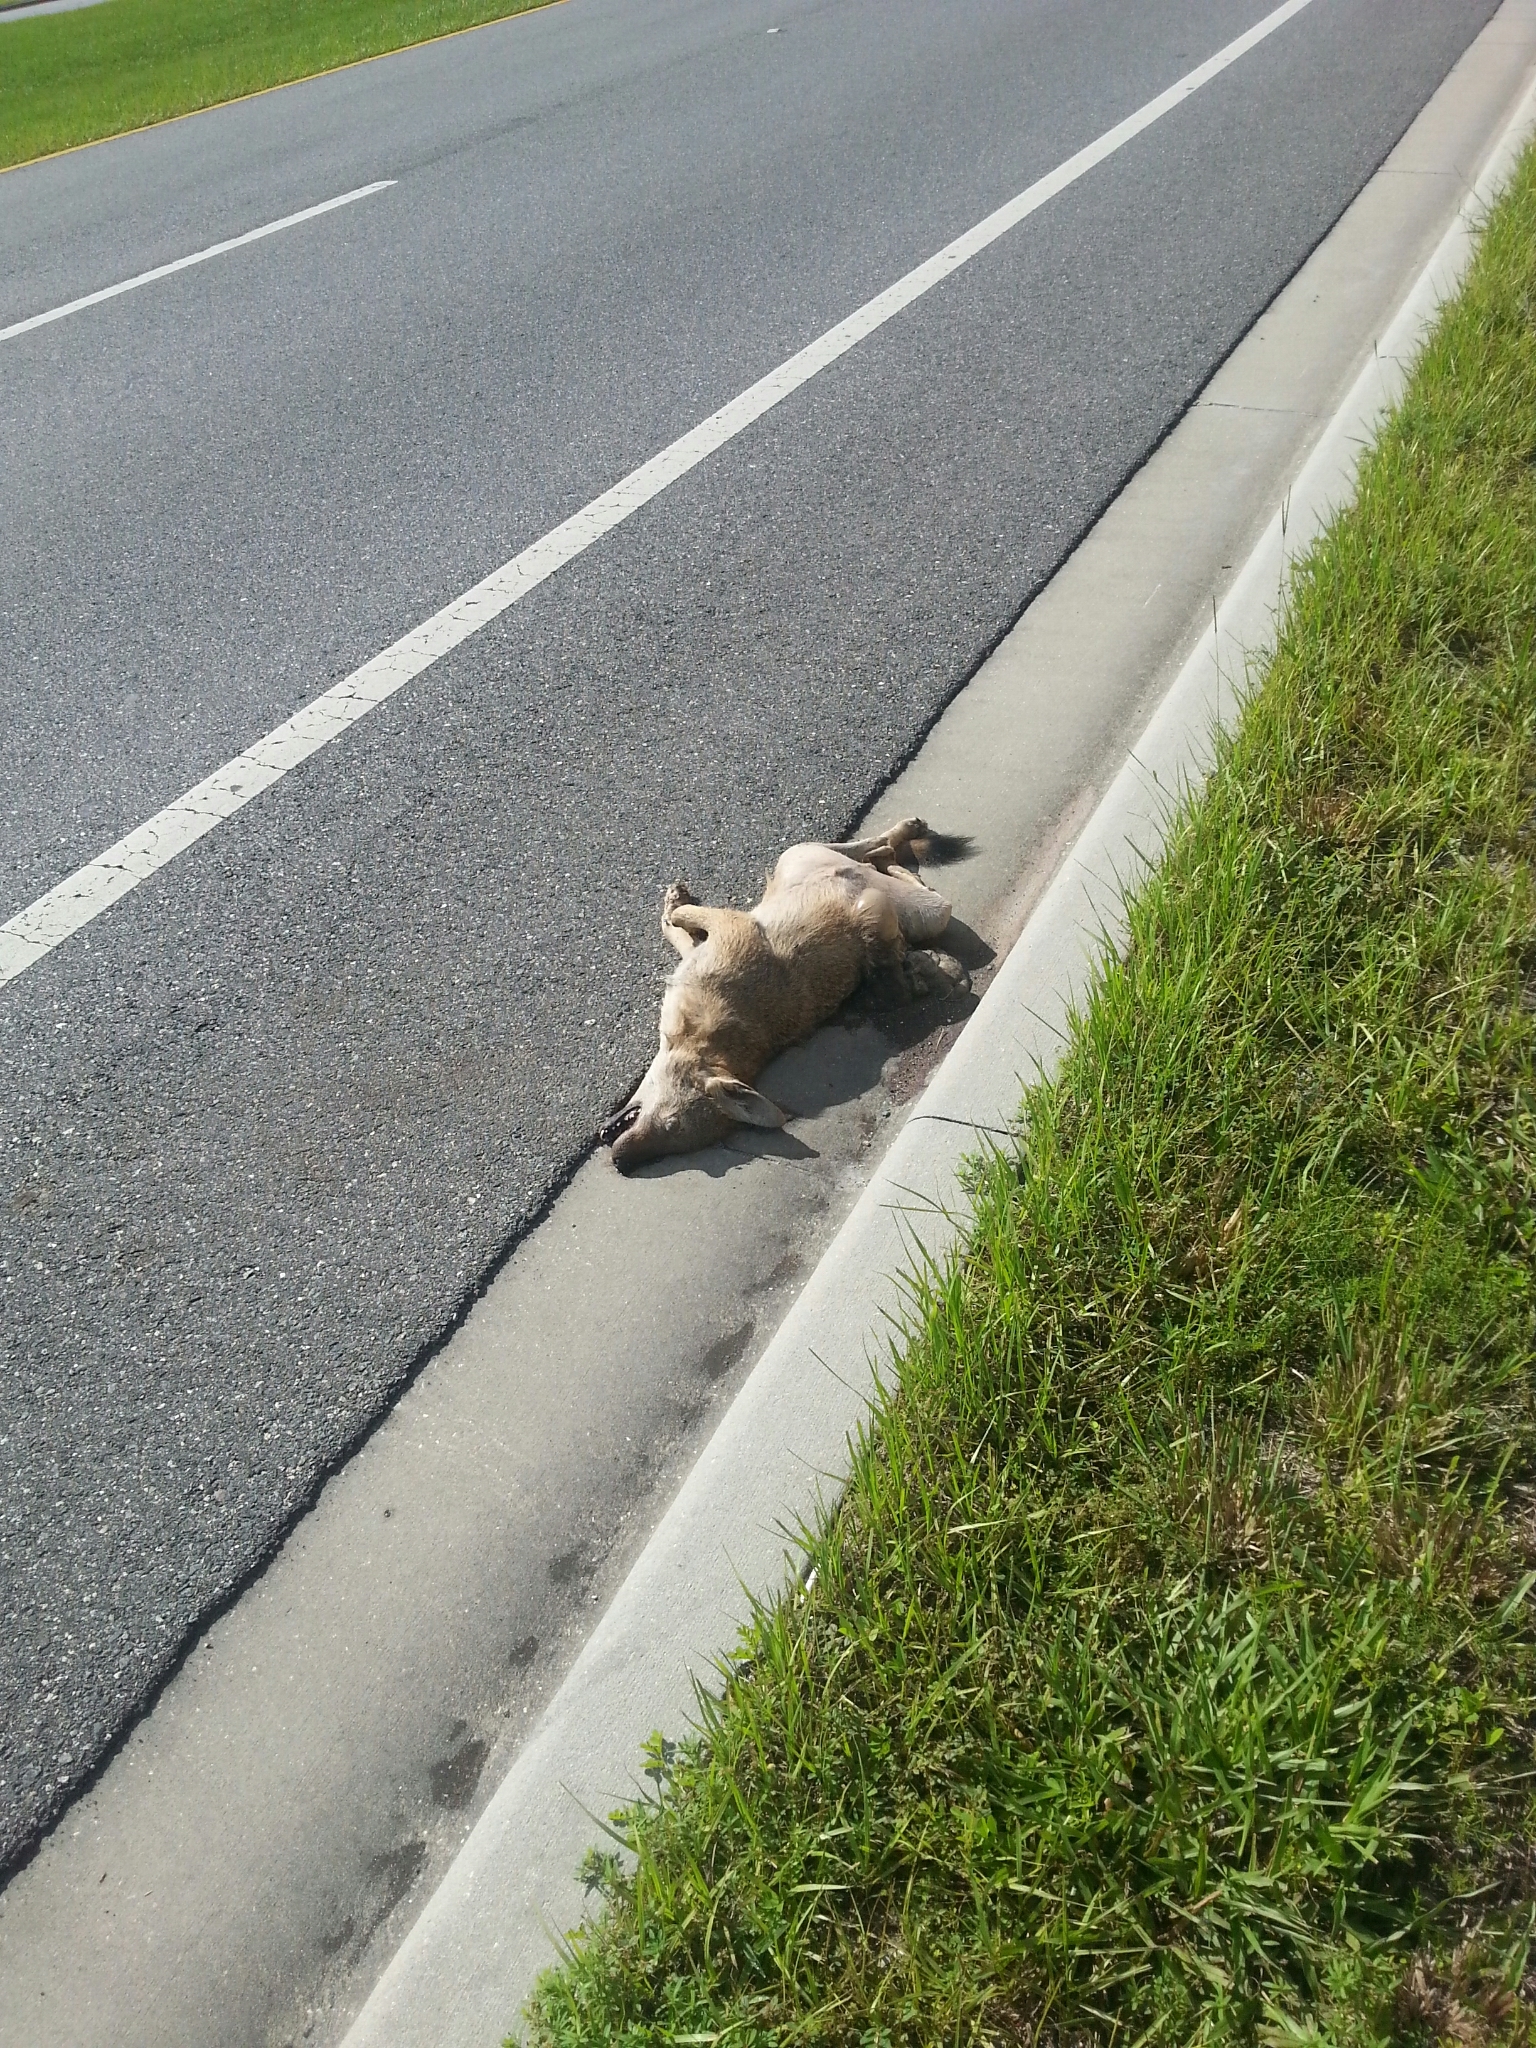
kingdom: Animalia
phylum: Chordata
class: Mammalia
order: Carnivora
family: Canidae
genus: Canis
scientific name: Canis latrans
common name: Coyote
